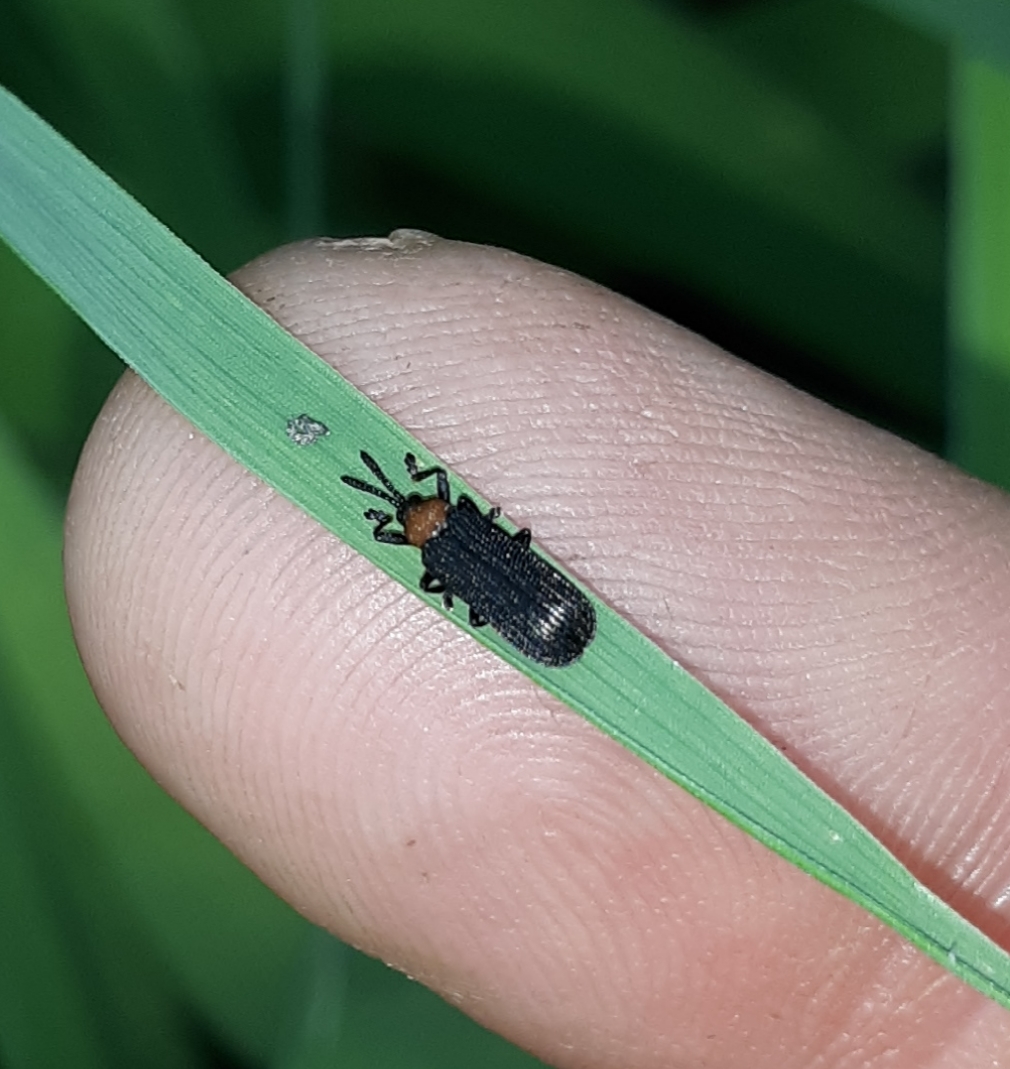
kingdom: Animalia
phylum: Arthropoda
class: Insecta
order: Coleoptera
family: Chrysomelidae
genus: Chalepus
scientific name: Chalepus walshii
